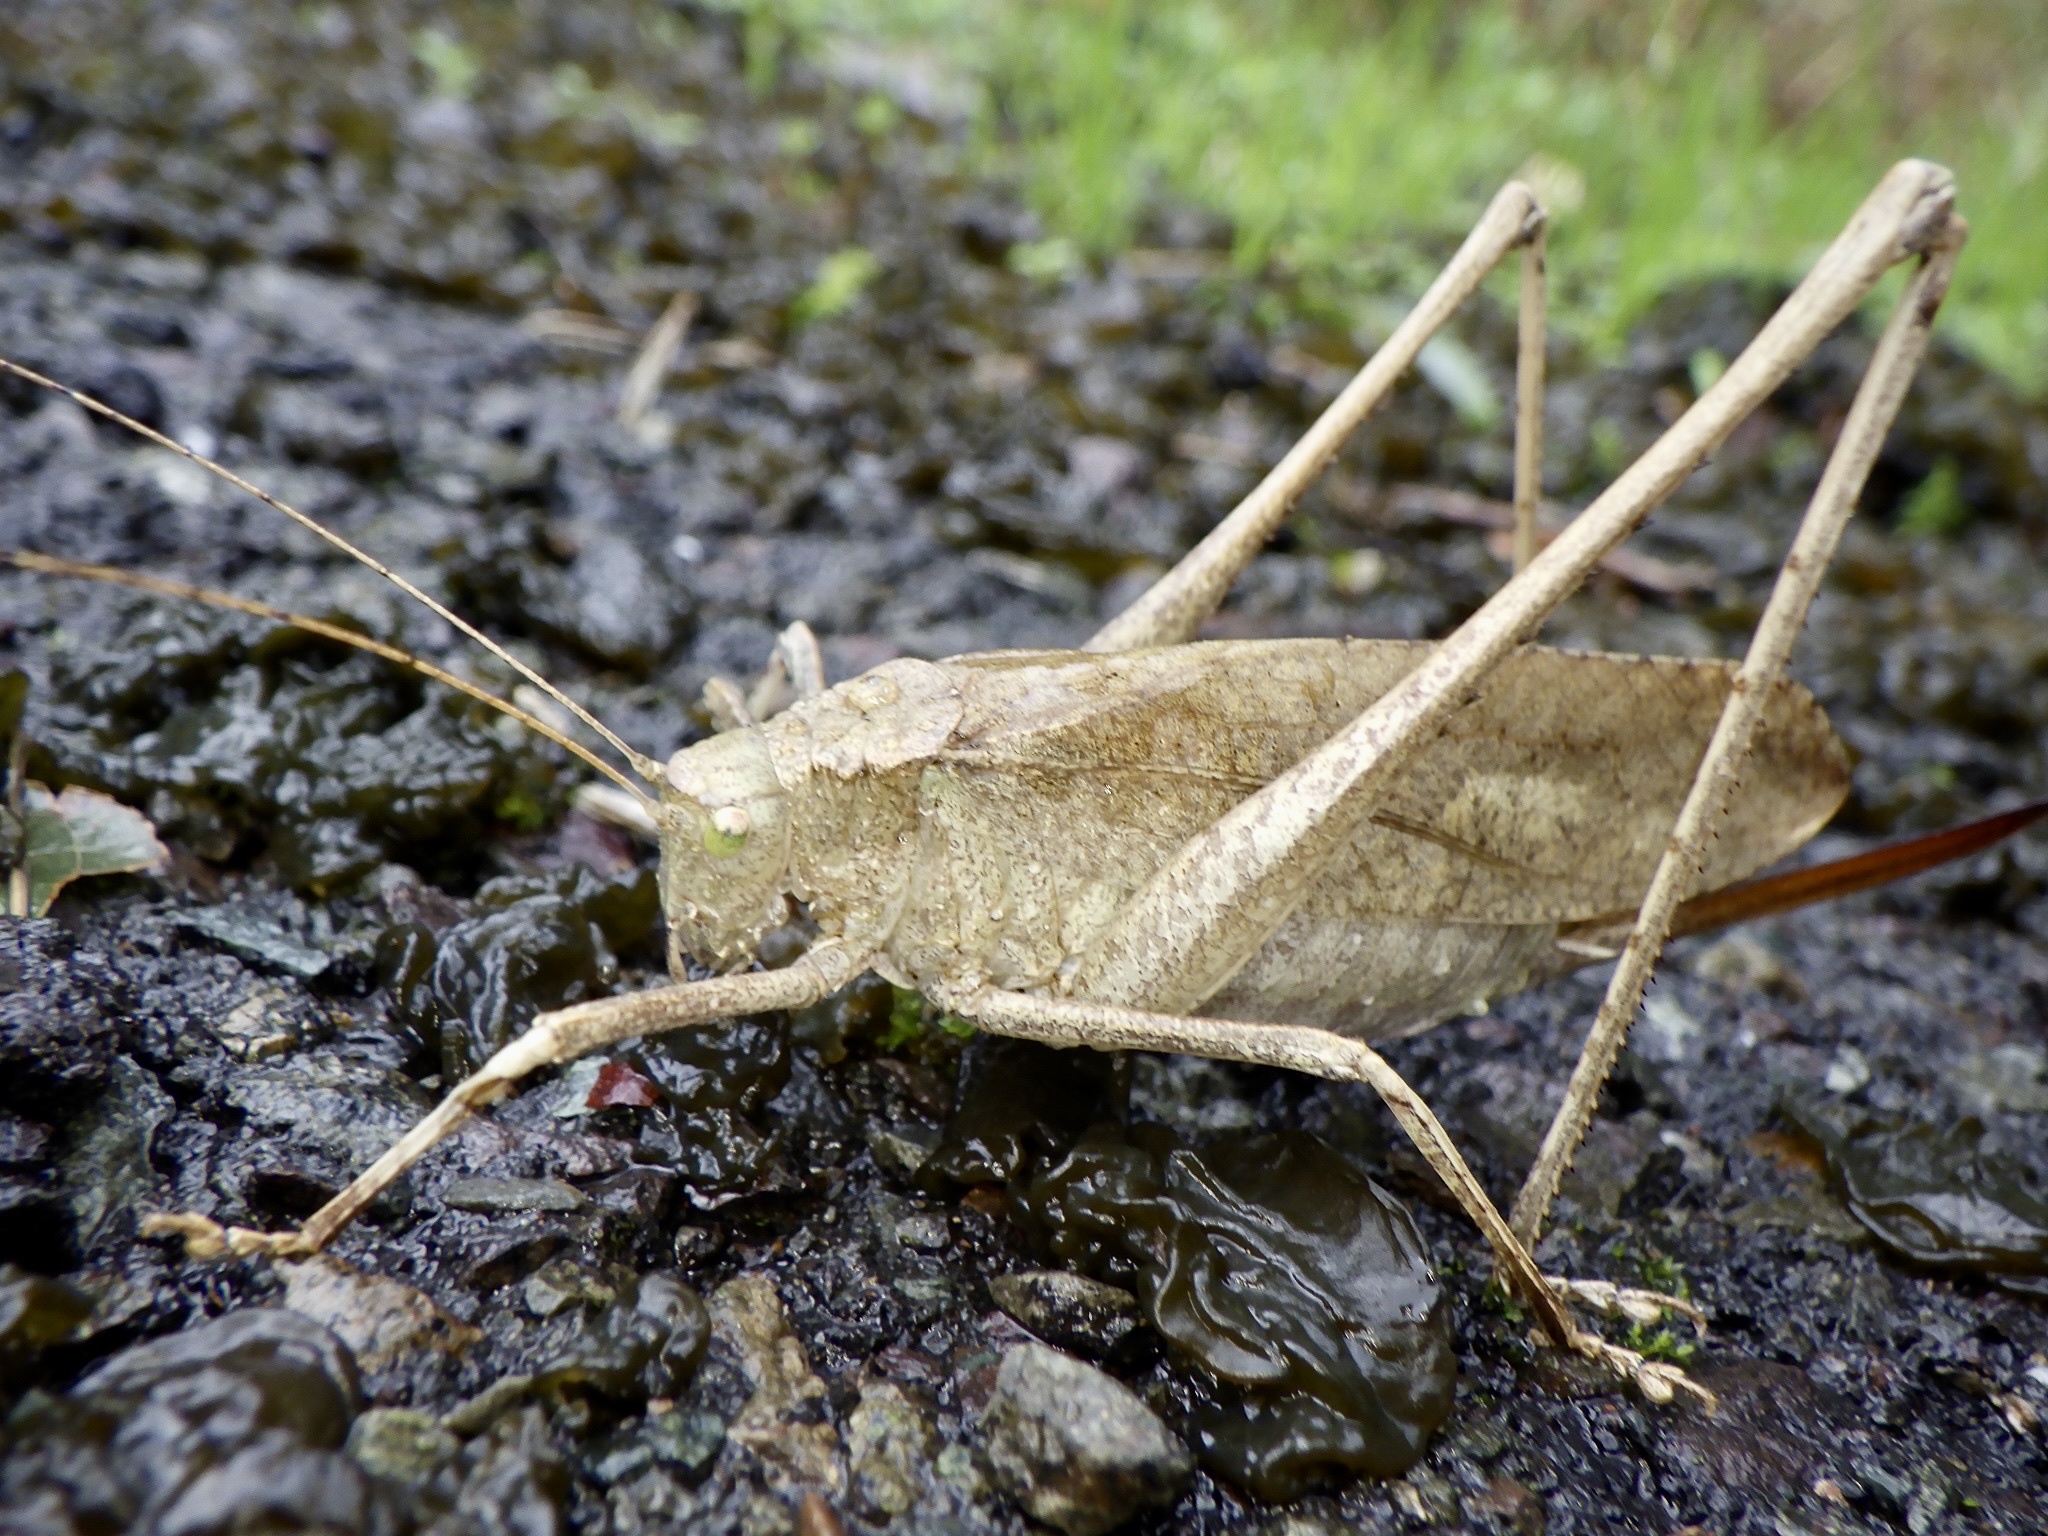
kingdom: Animalia
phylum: Arthropoda
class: Insecta
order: Orthoptera
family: Tettigoniidae
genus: Mecopoda
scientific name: Mecopoda niponensis
